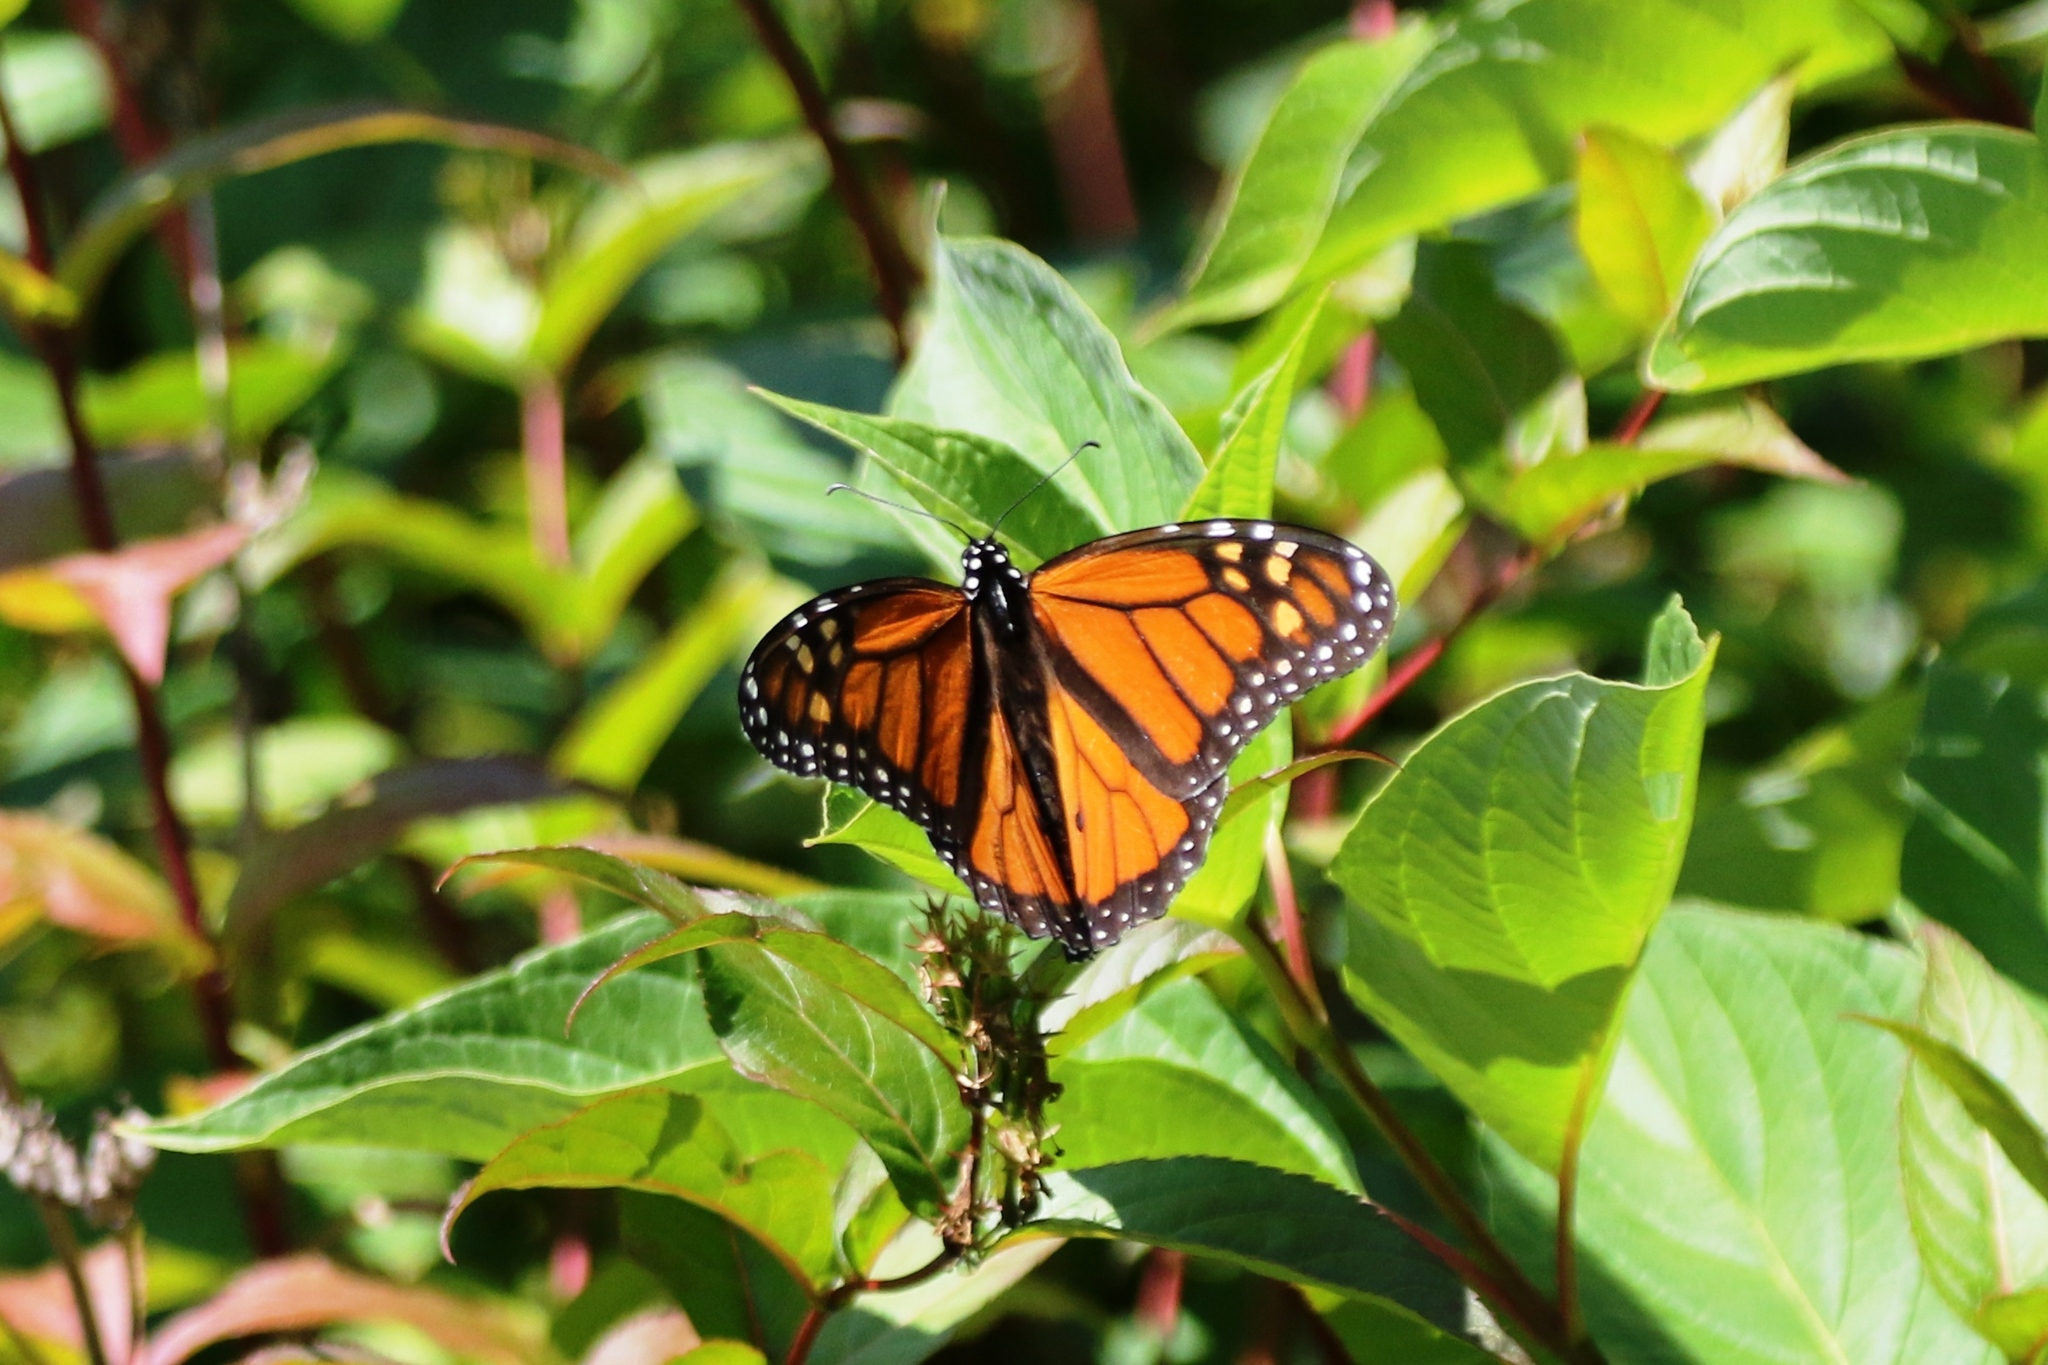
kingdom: Animalia
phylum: Arthropoda
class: Insecta
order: Lepidoptera
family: Nymphalidae
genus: Danaus
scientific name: Danaus plexippus
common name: Monarch
